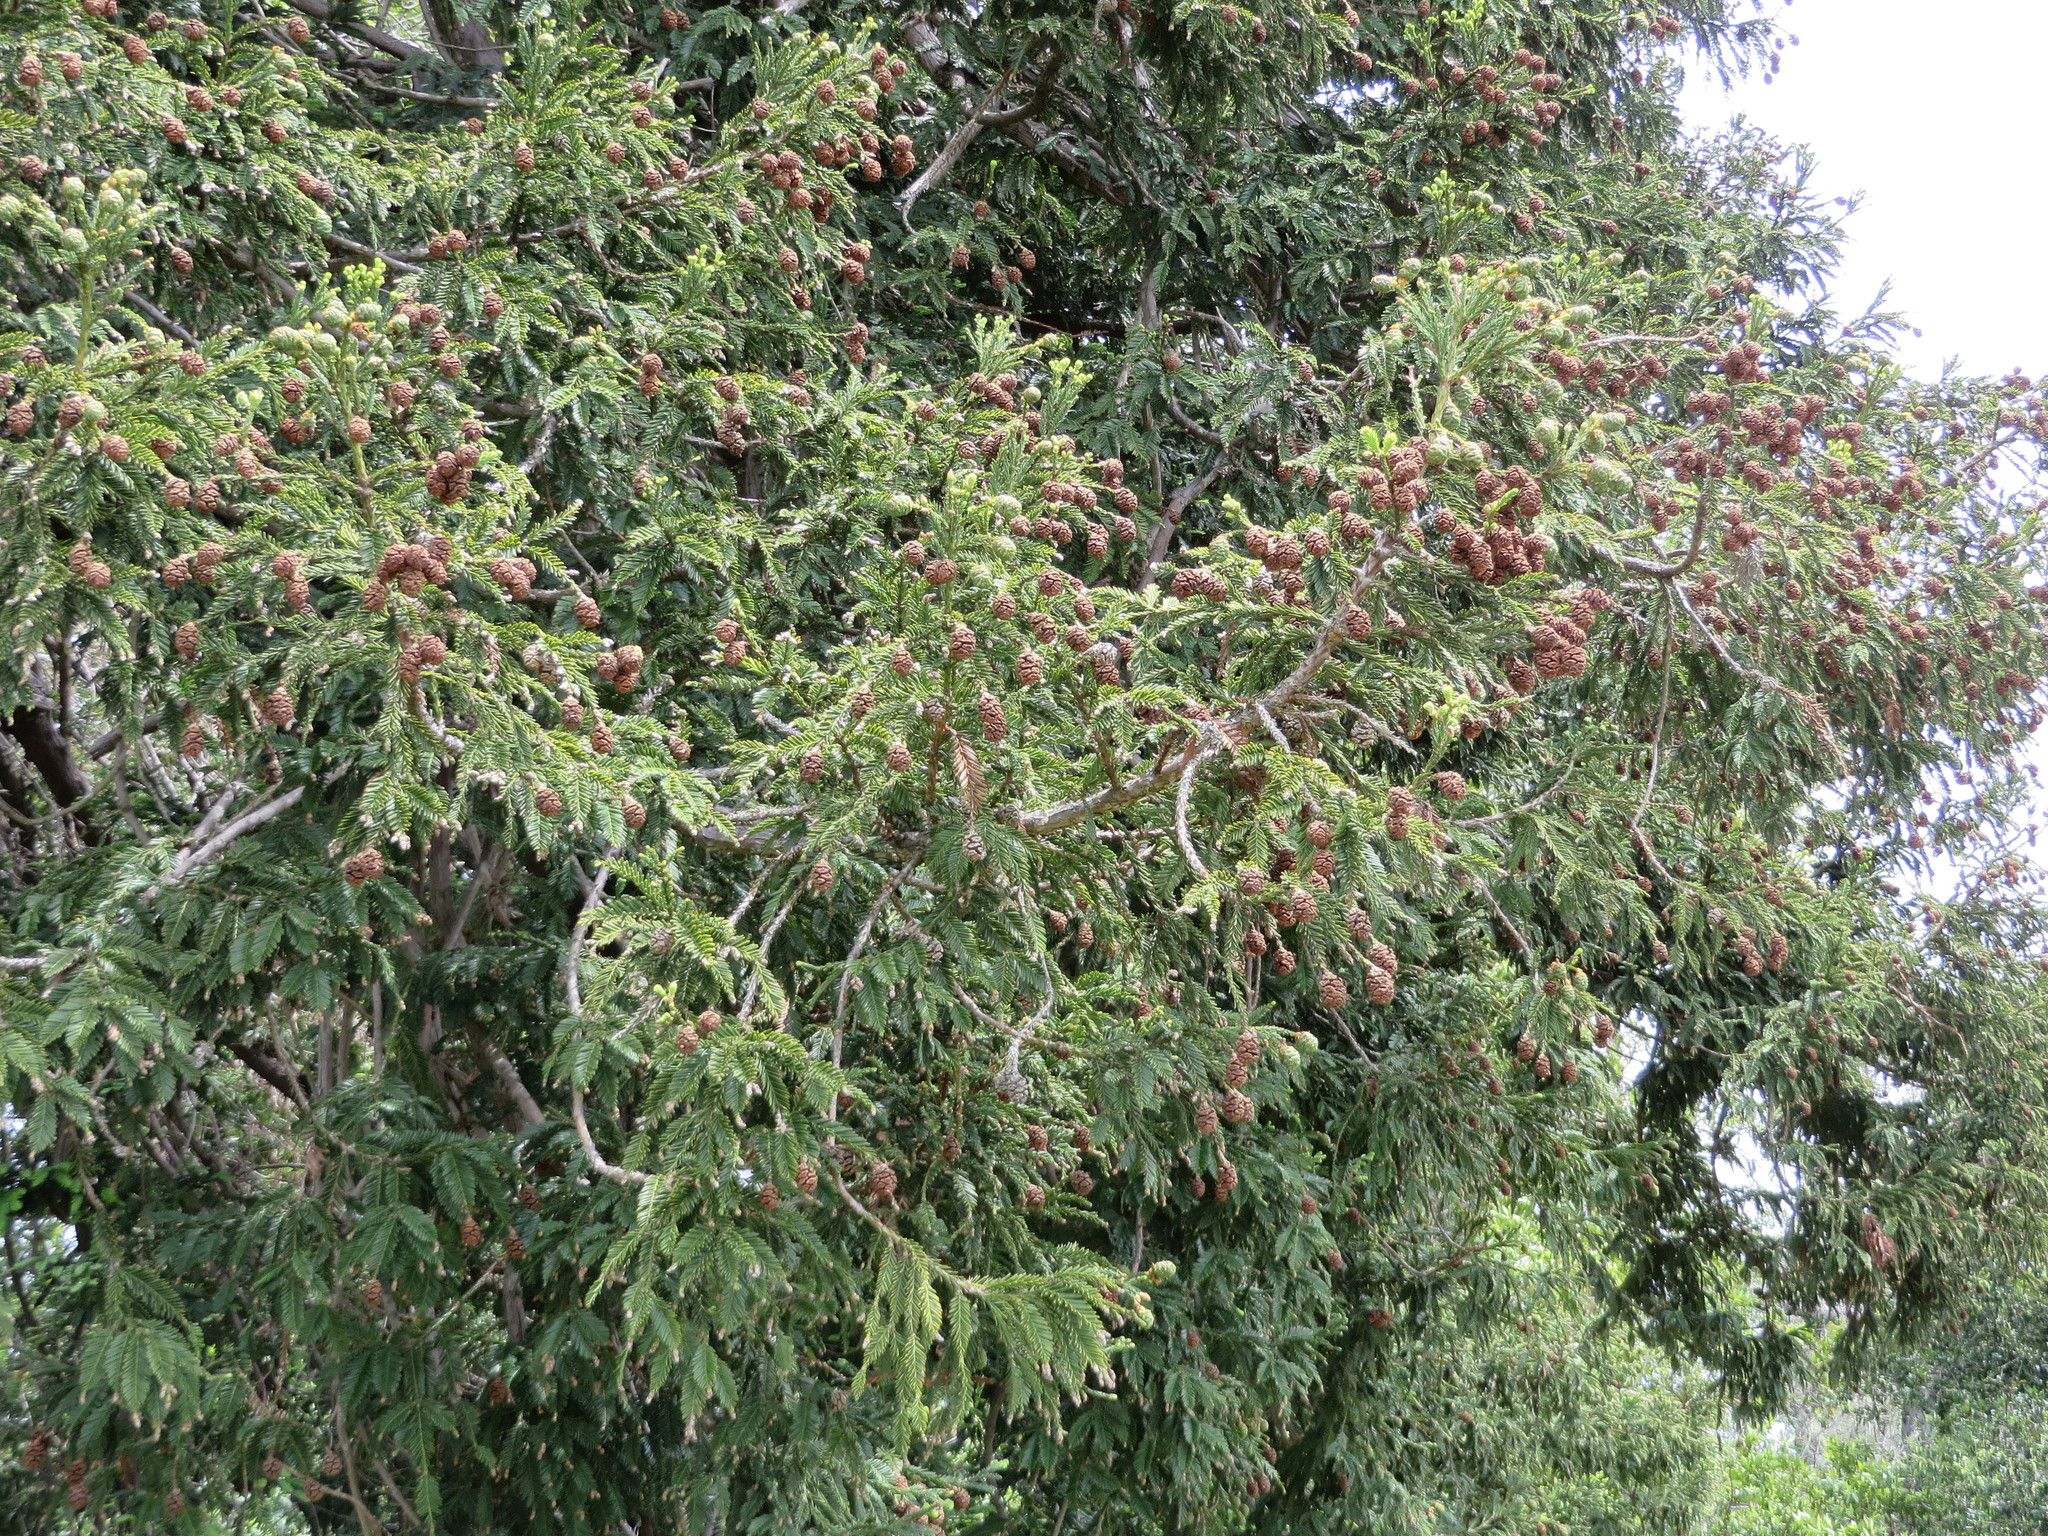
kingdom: Plantae
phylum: Tracheophyta
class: Pinopsida
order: Pinales
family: Cupressaceae
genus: Sequoia
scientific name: Sequoia sempervirens
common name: Coast redwood
